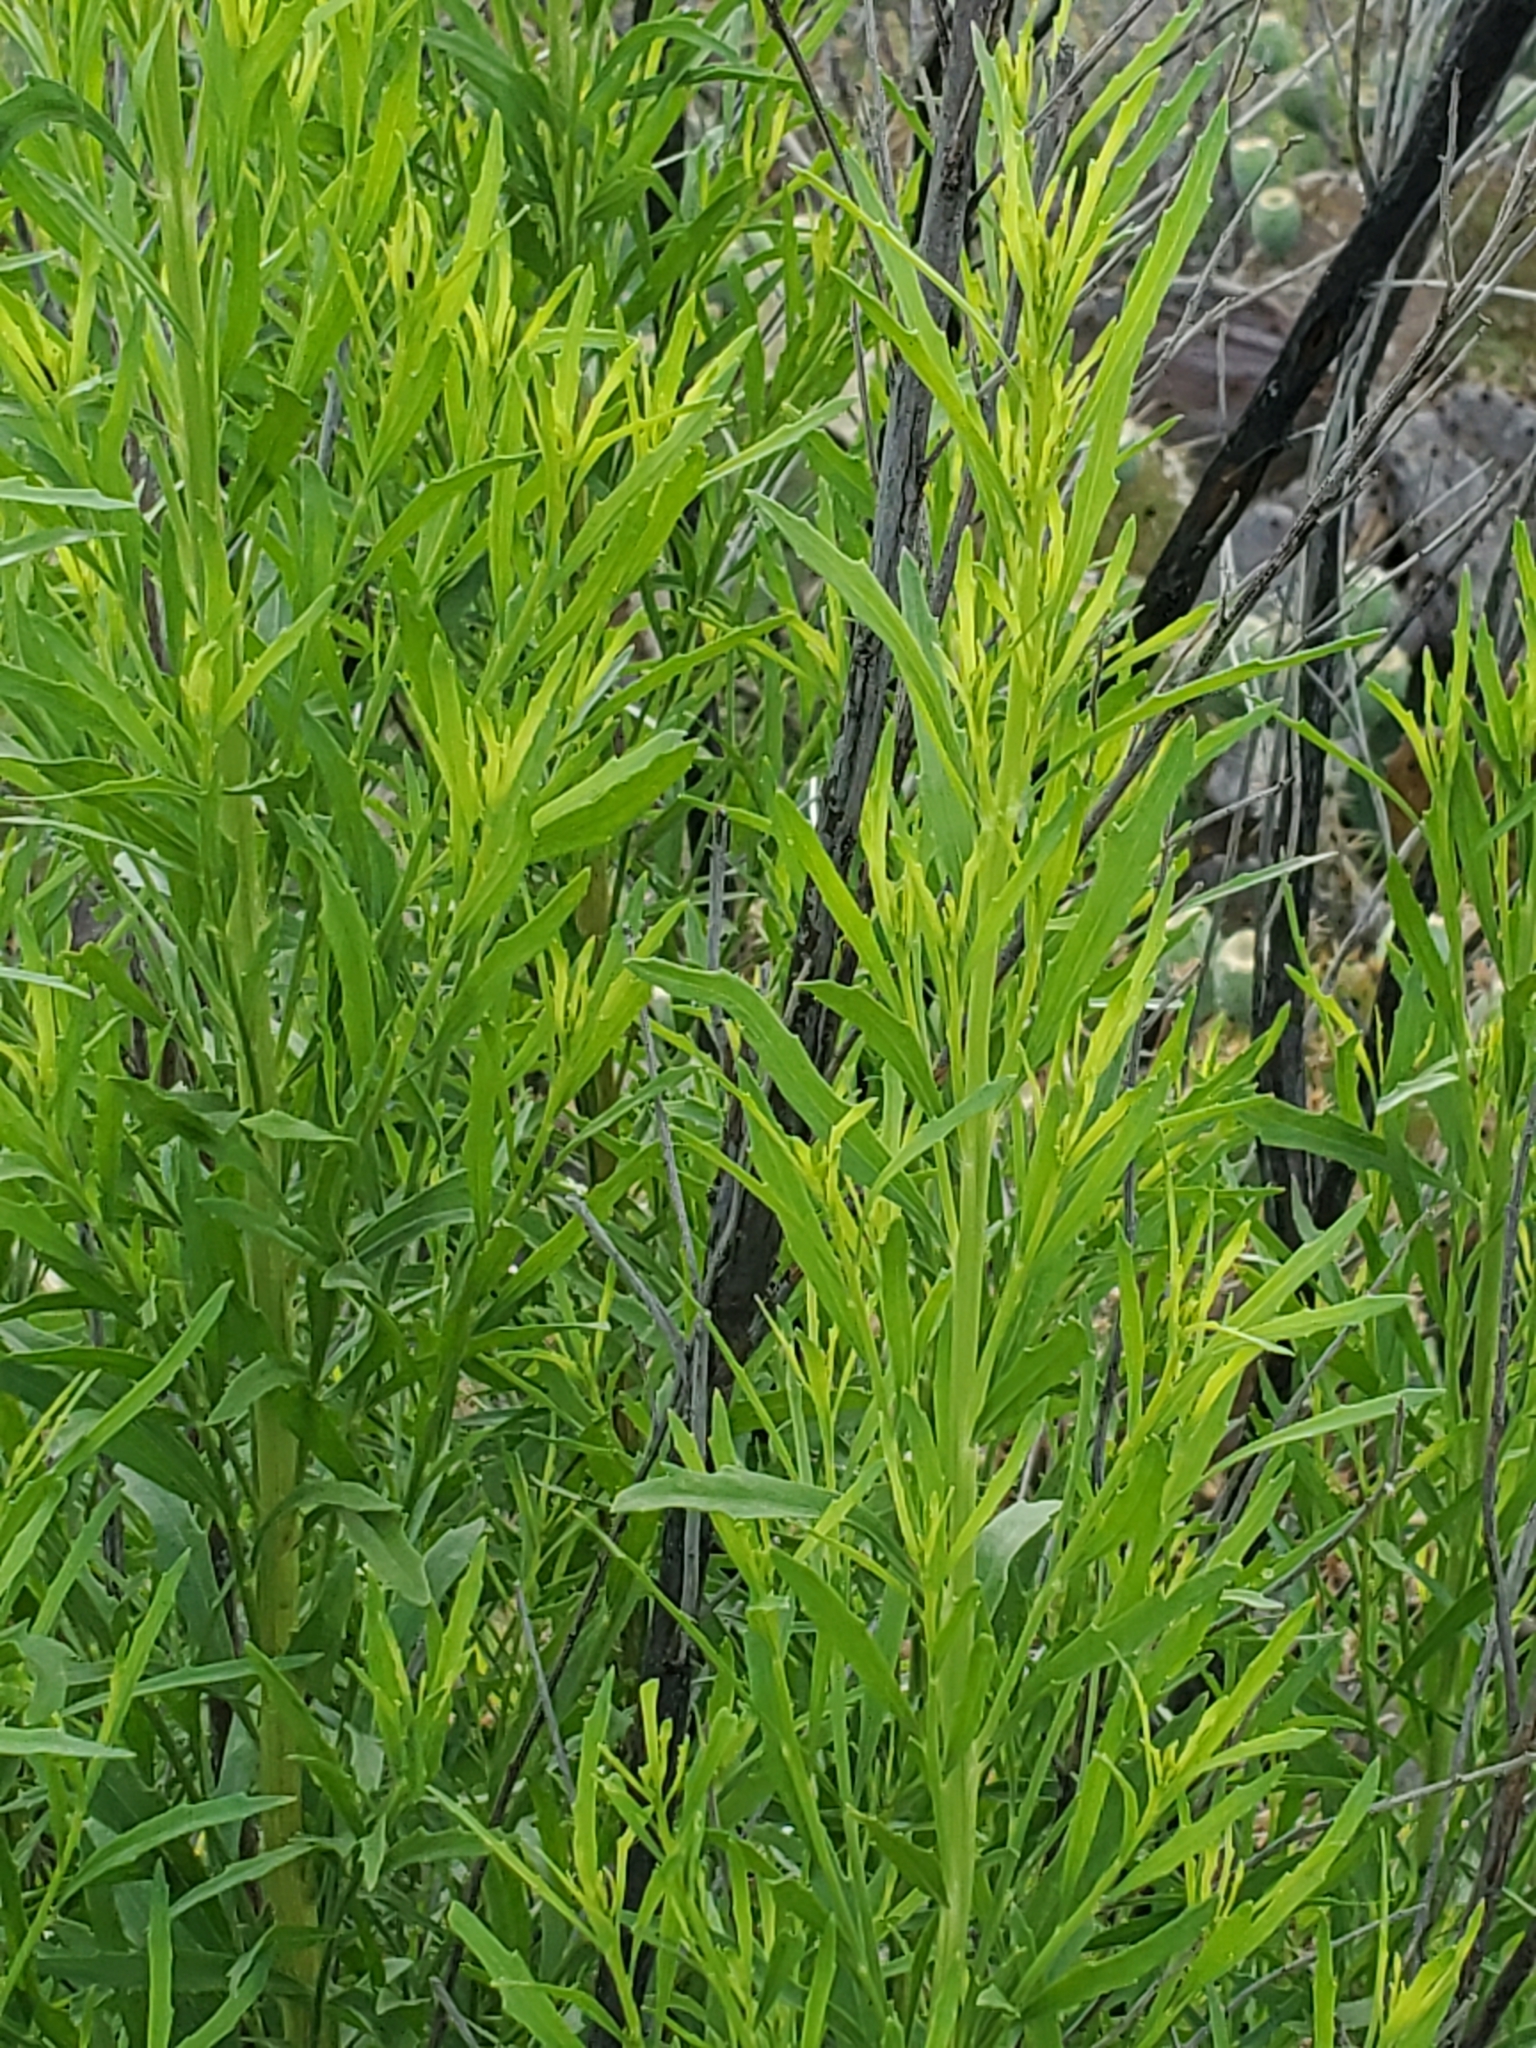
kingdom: Plantae
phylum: Tracheophyta
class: Magnoliopsida
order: Asterales
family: Asteraceae
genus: Baccharis
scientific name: Baccharis neglecta
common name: Roosevelt-weed
